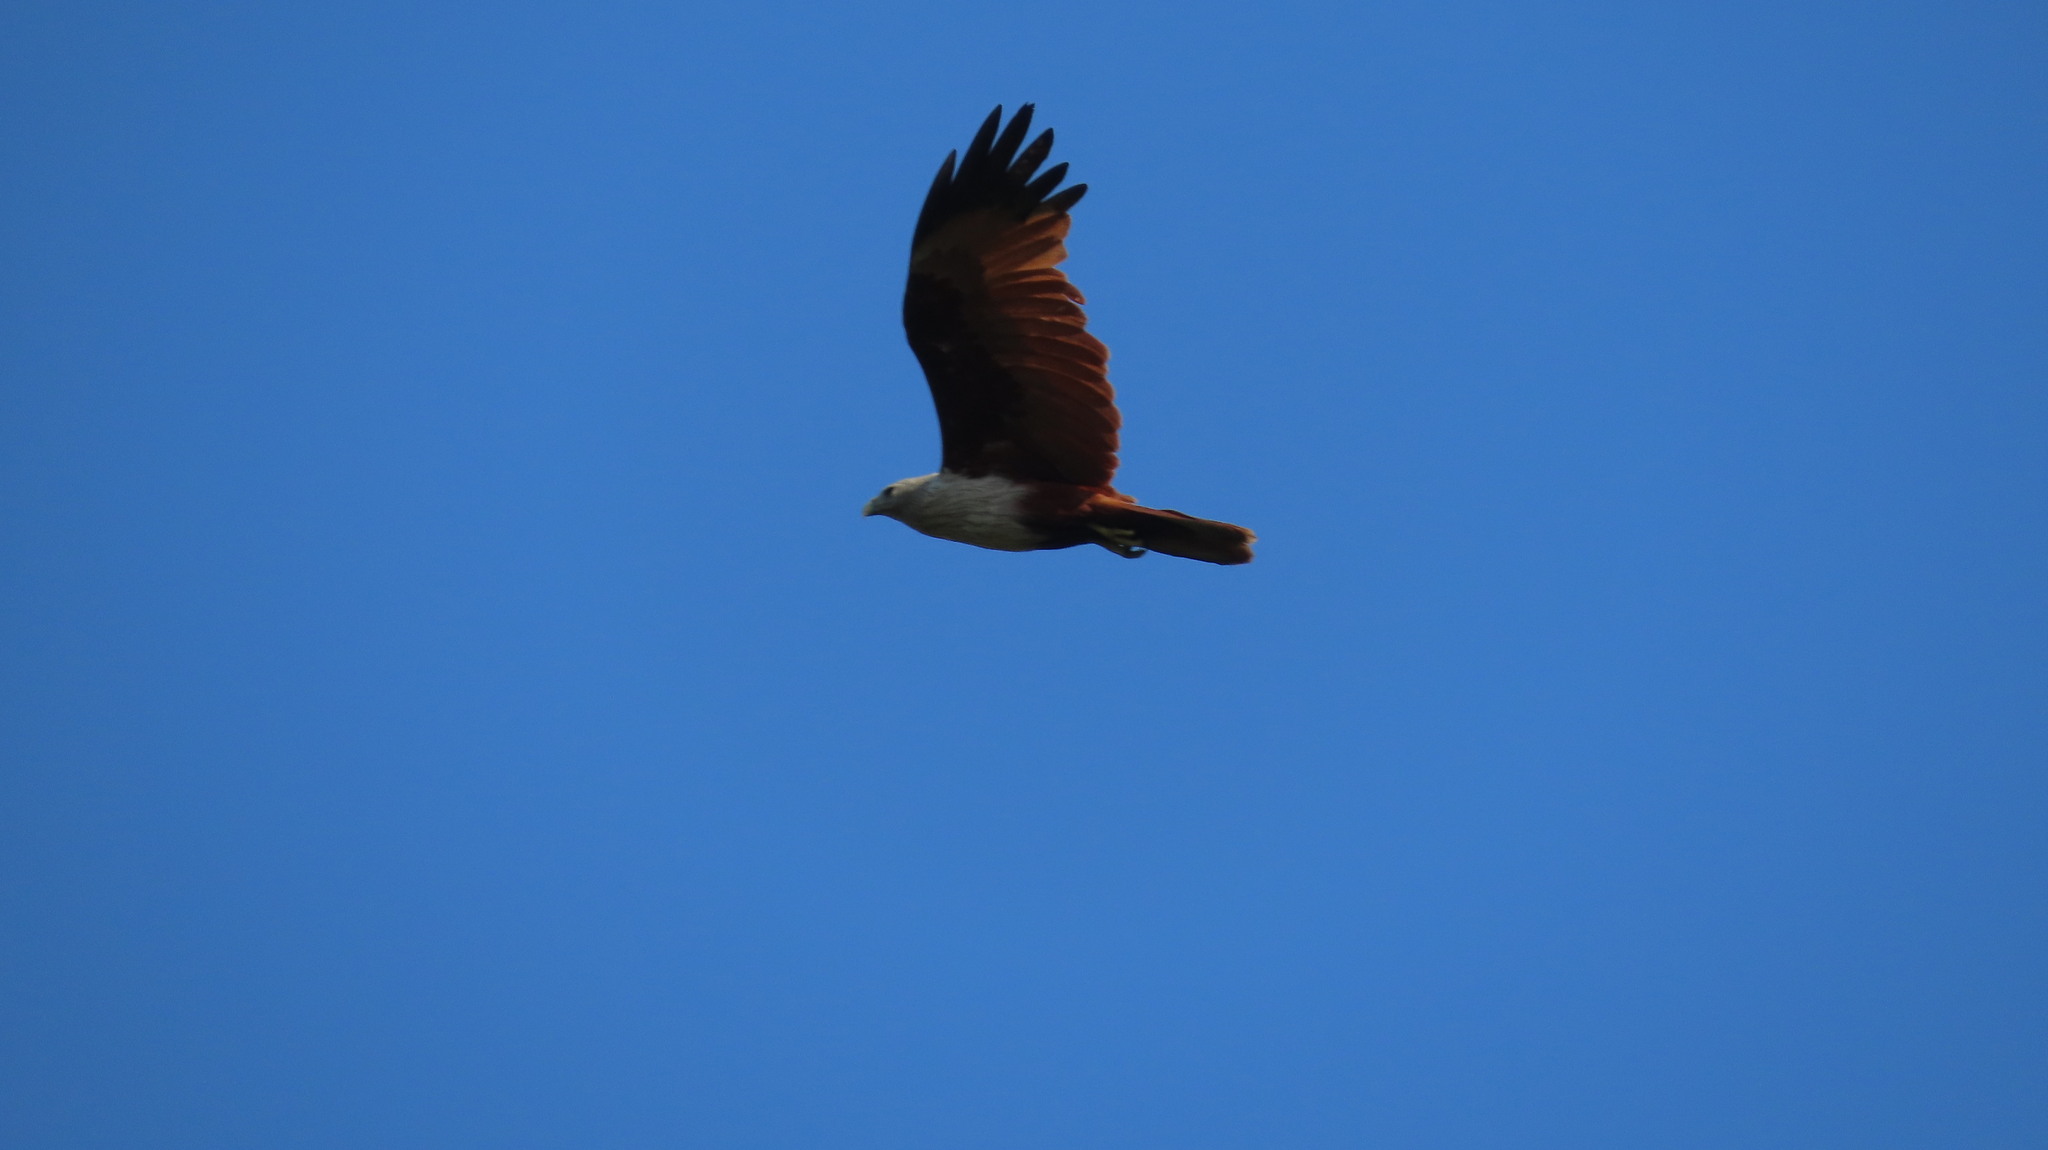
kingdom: Animalia
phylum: Chordata
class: Aves
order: Accipitriformes
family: Accipitridae
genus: Haliastur
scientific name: Haliastur indus
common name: Brahminy kite
